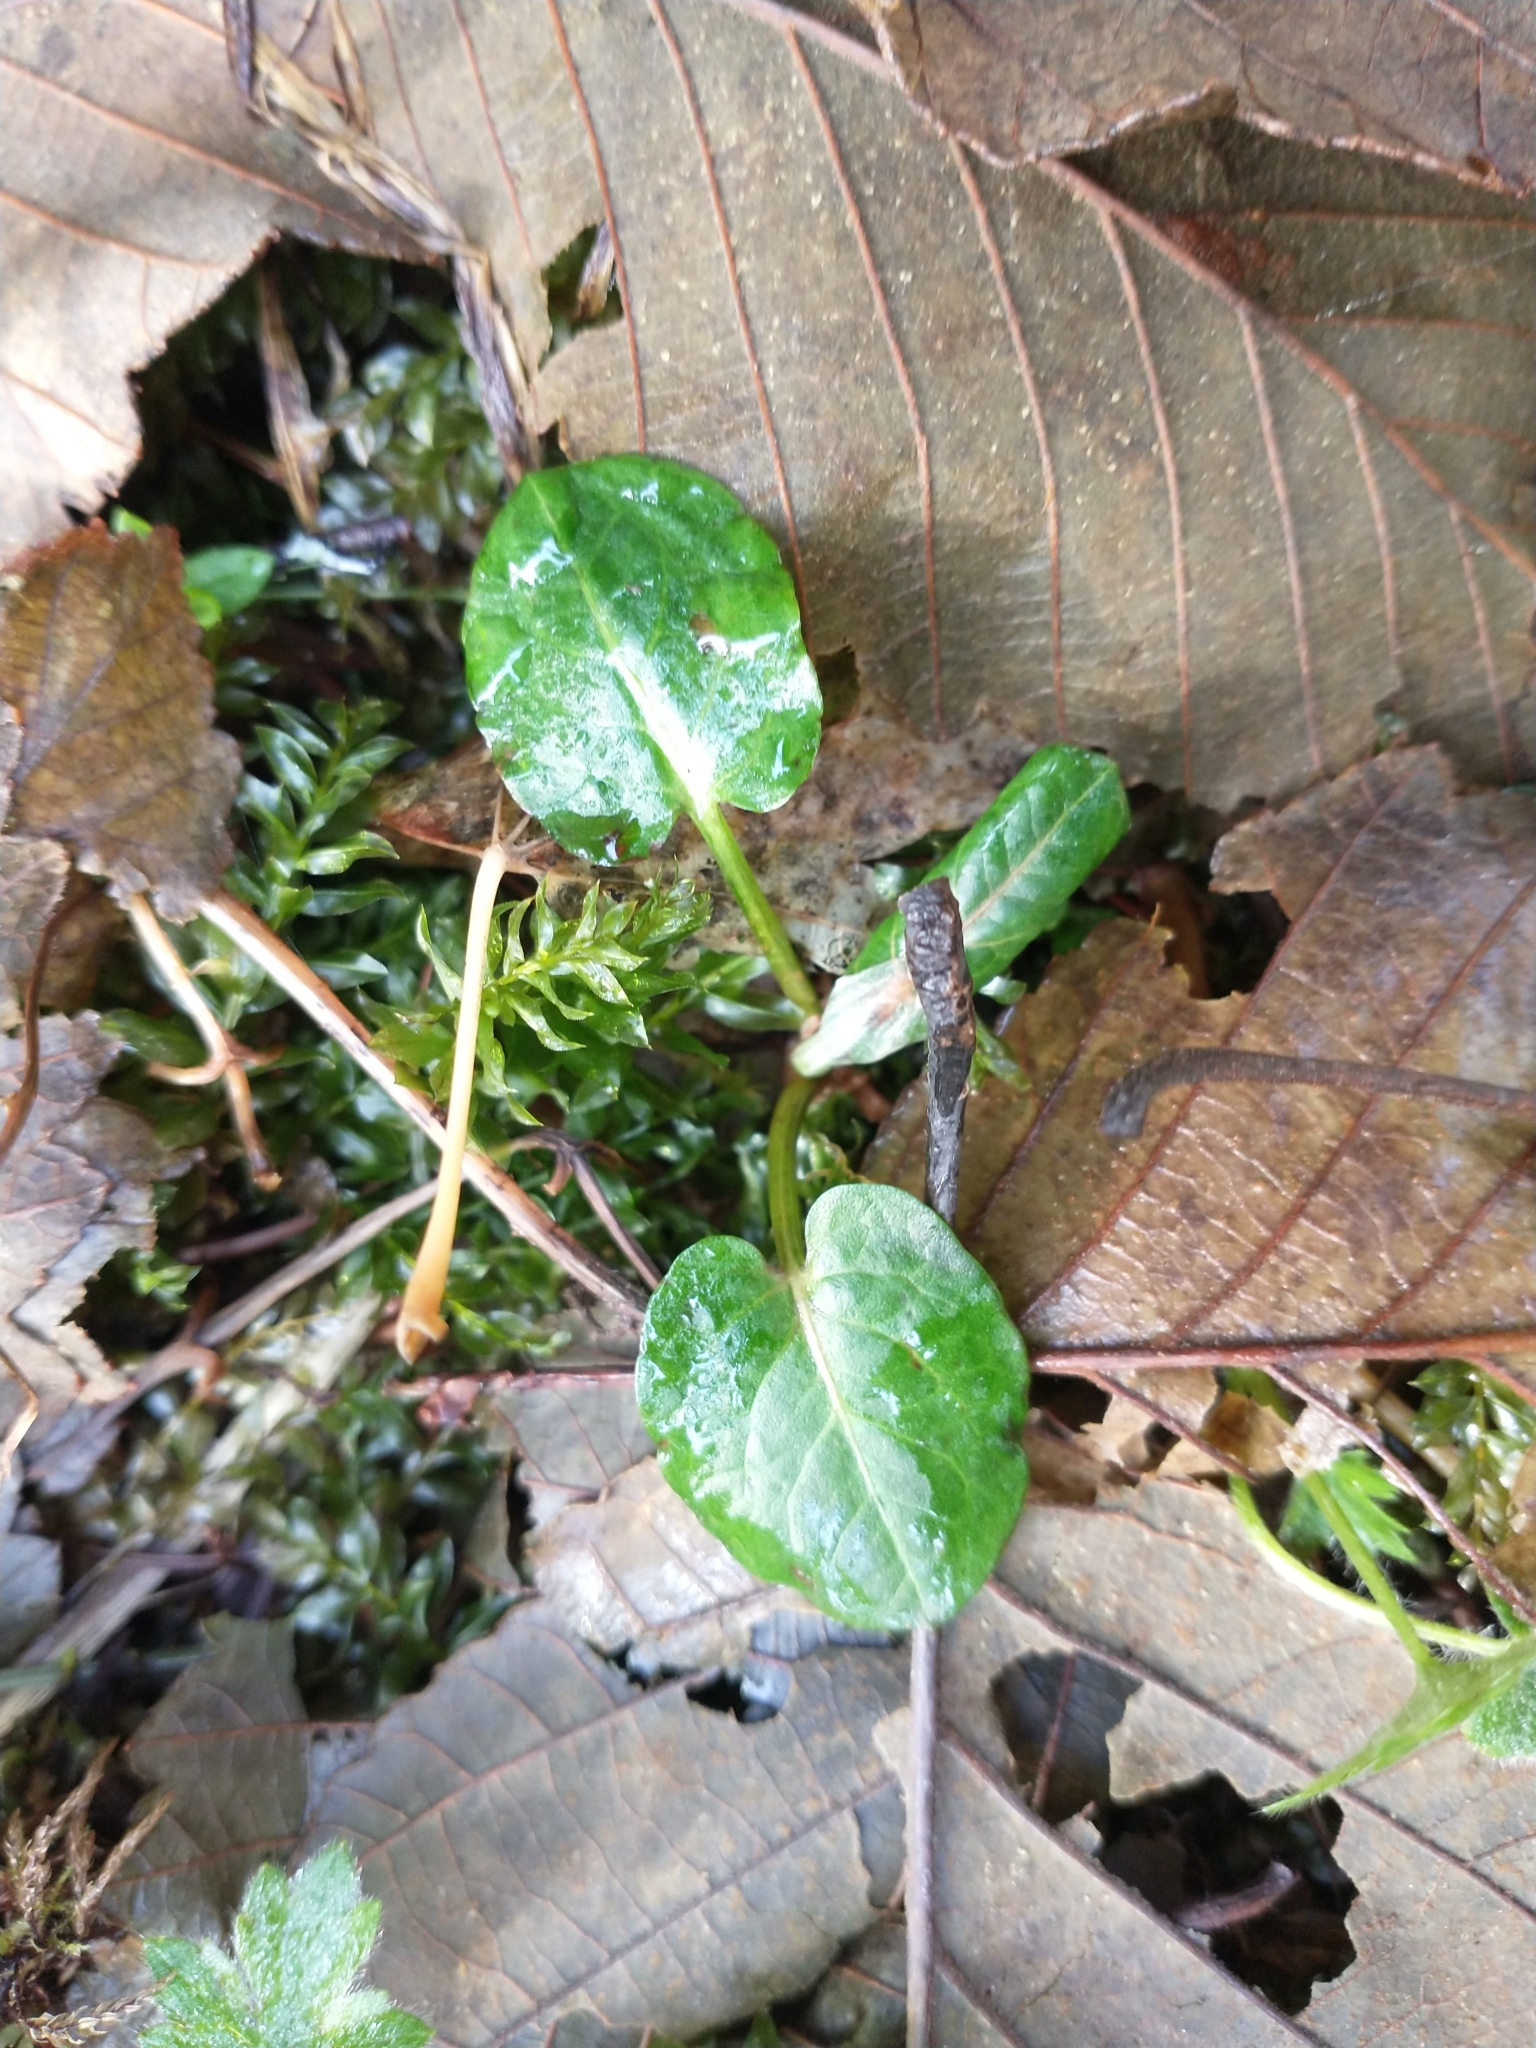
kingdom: Plantae
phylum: Tracheophyta
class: Magnoliopsida
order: Lamiales
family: Lamiaceae
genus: Prunella
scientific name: Prunella vulgaris
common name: Heal-all
